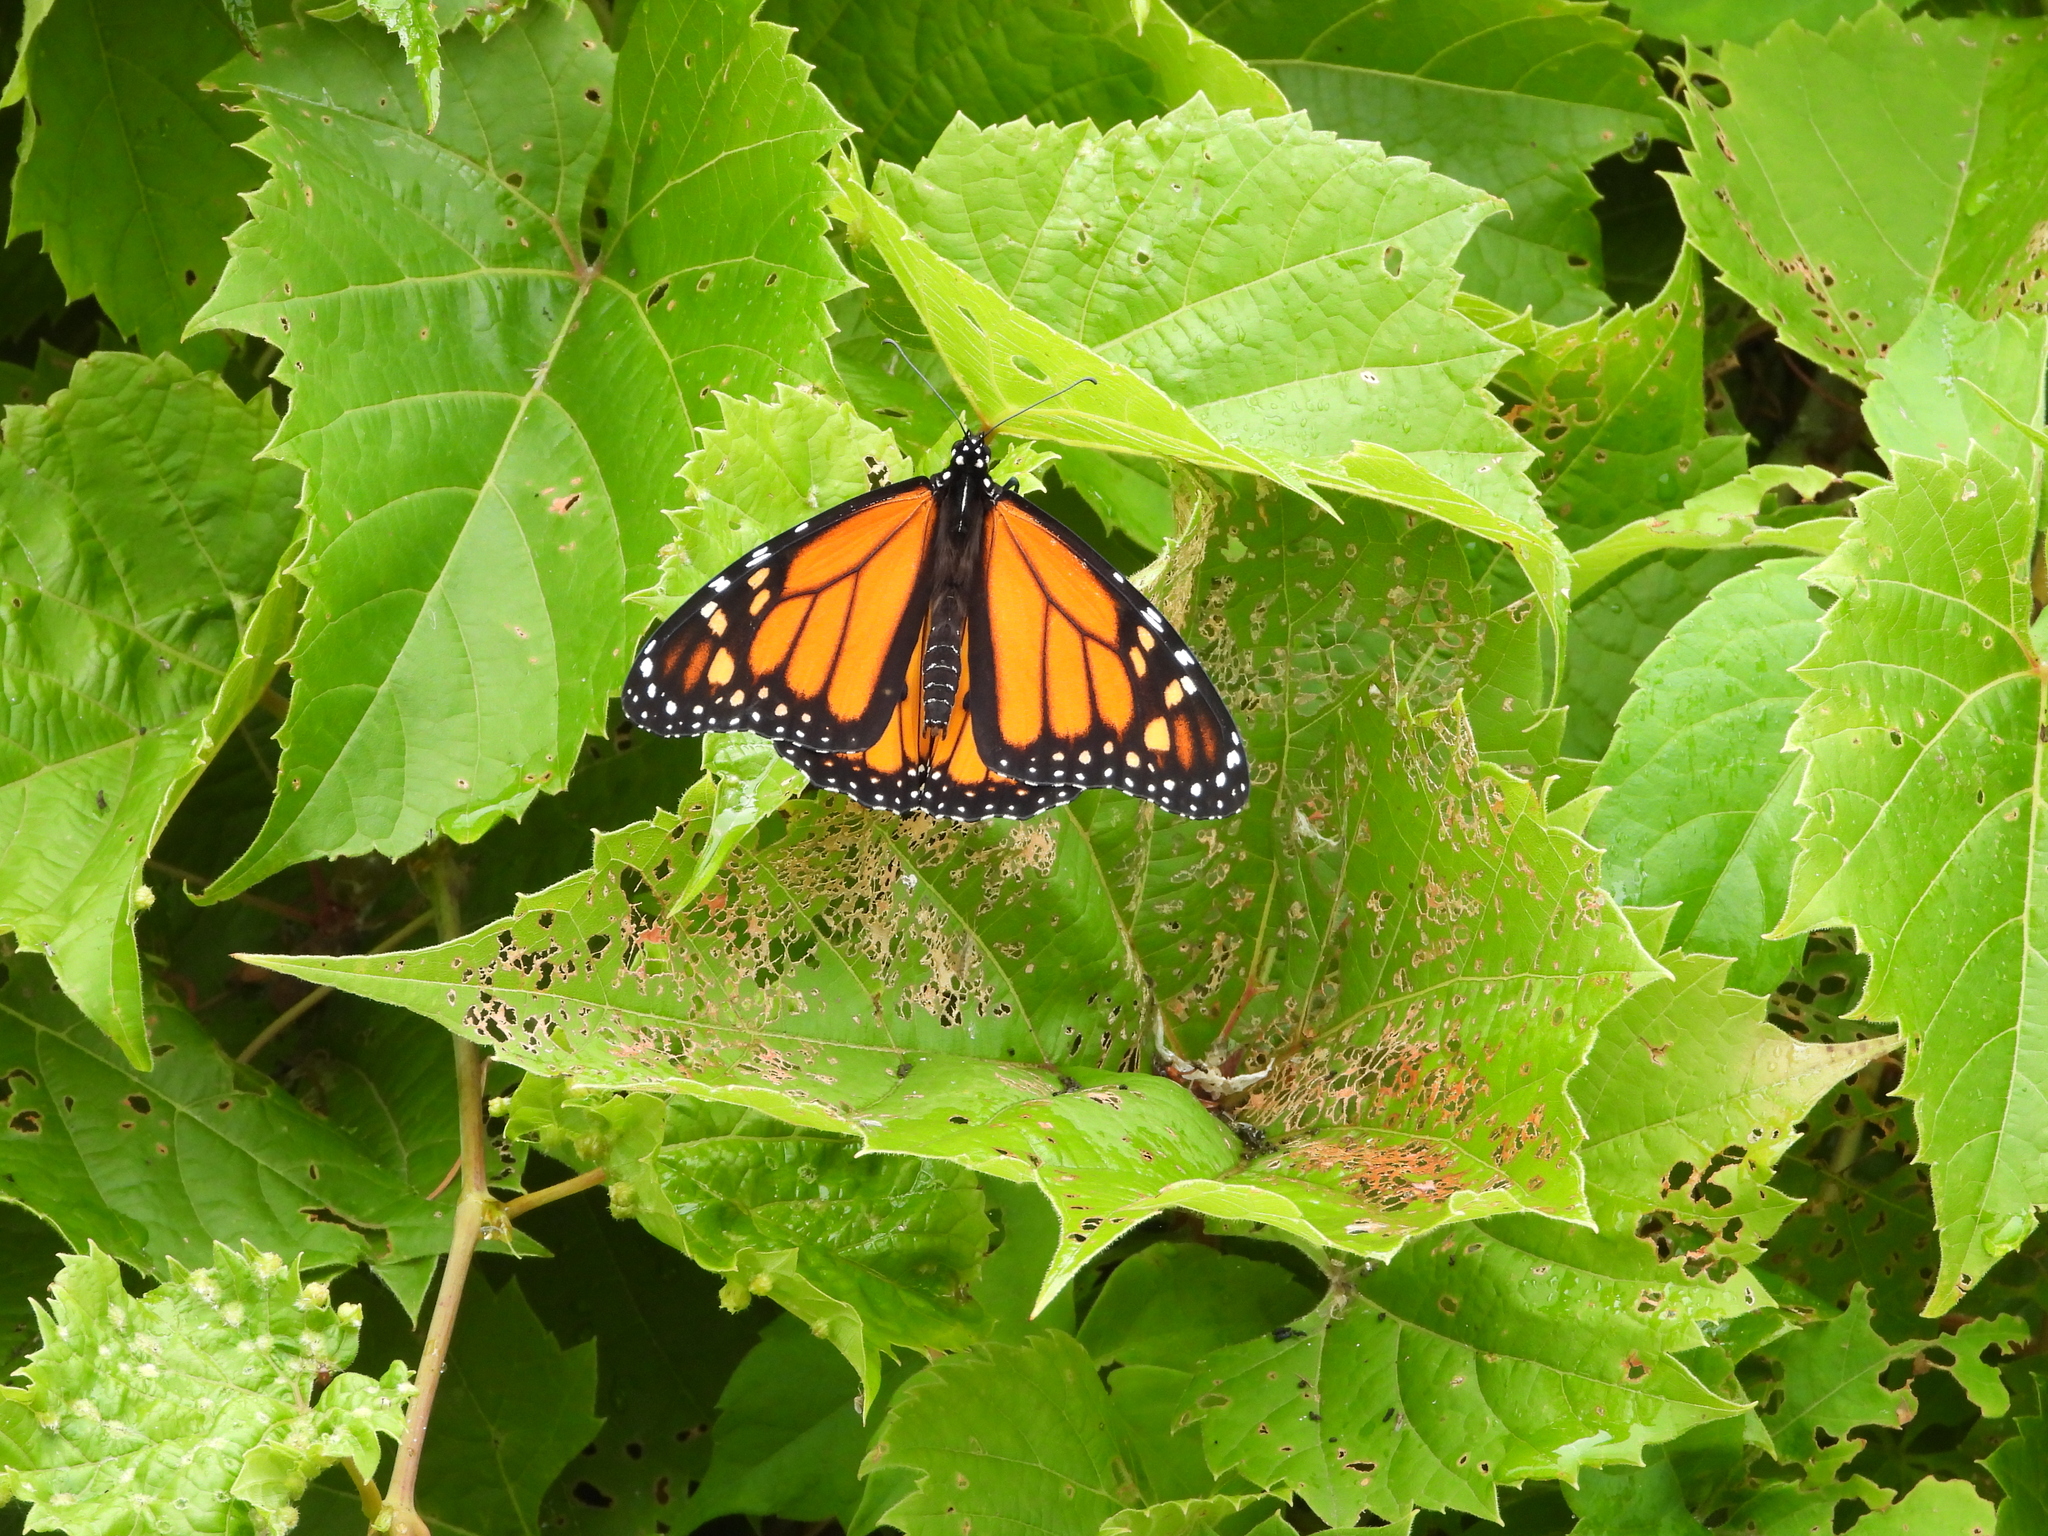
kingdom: Animalia
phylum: Arthropoda
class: Insecta
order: Lepidoptera
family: Nymphalidae
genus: Danaus
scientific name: Danaus plexippus
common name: Monarch
